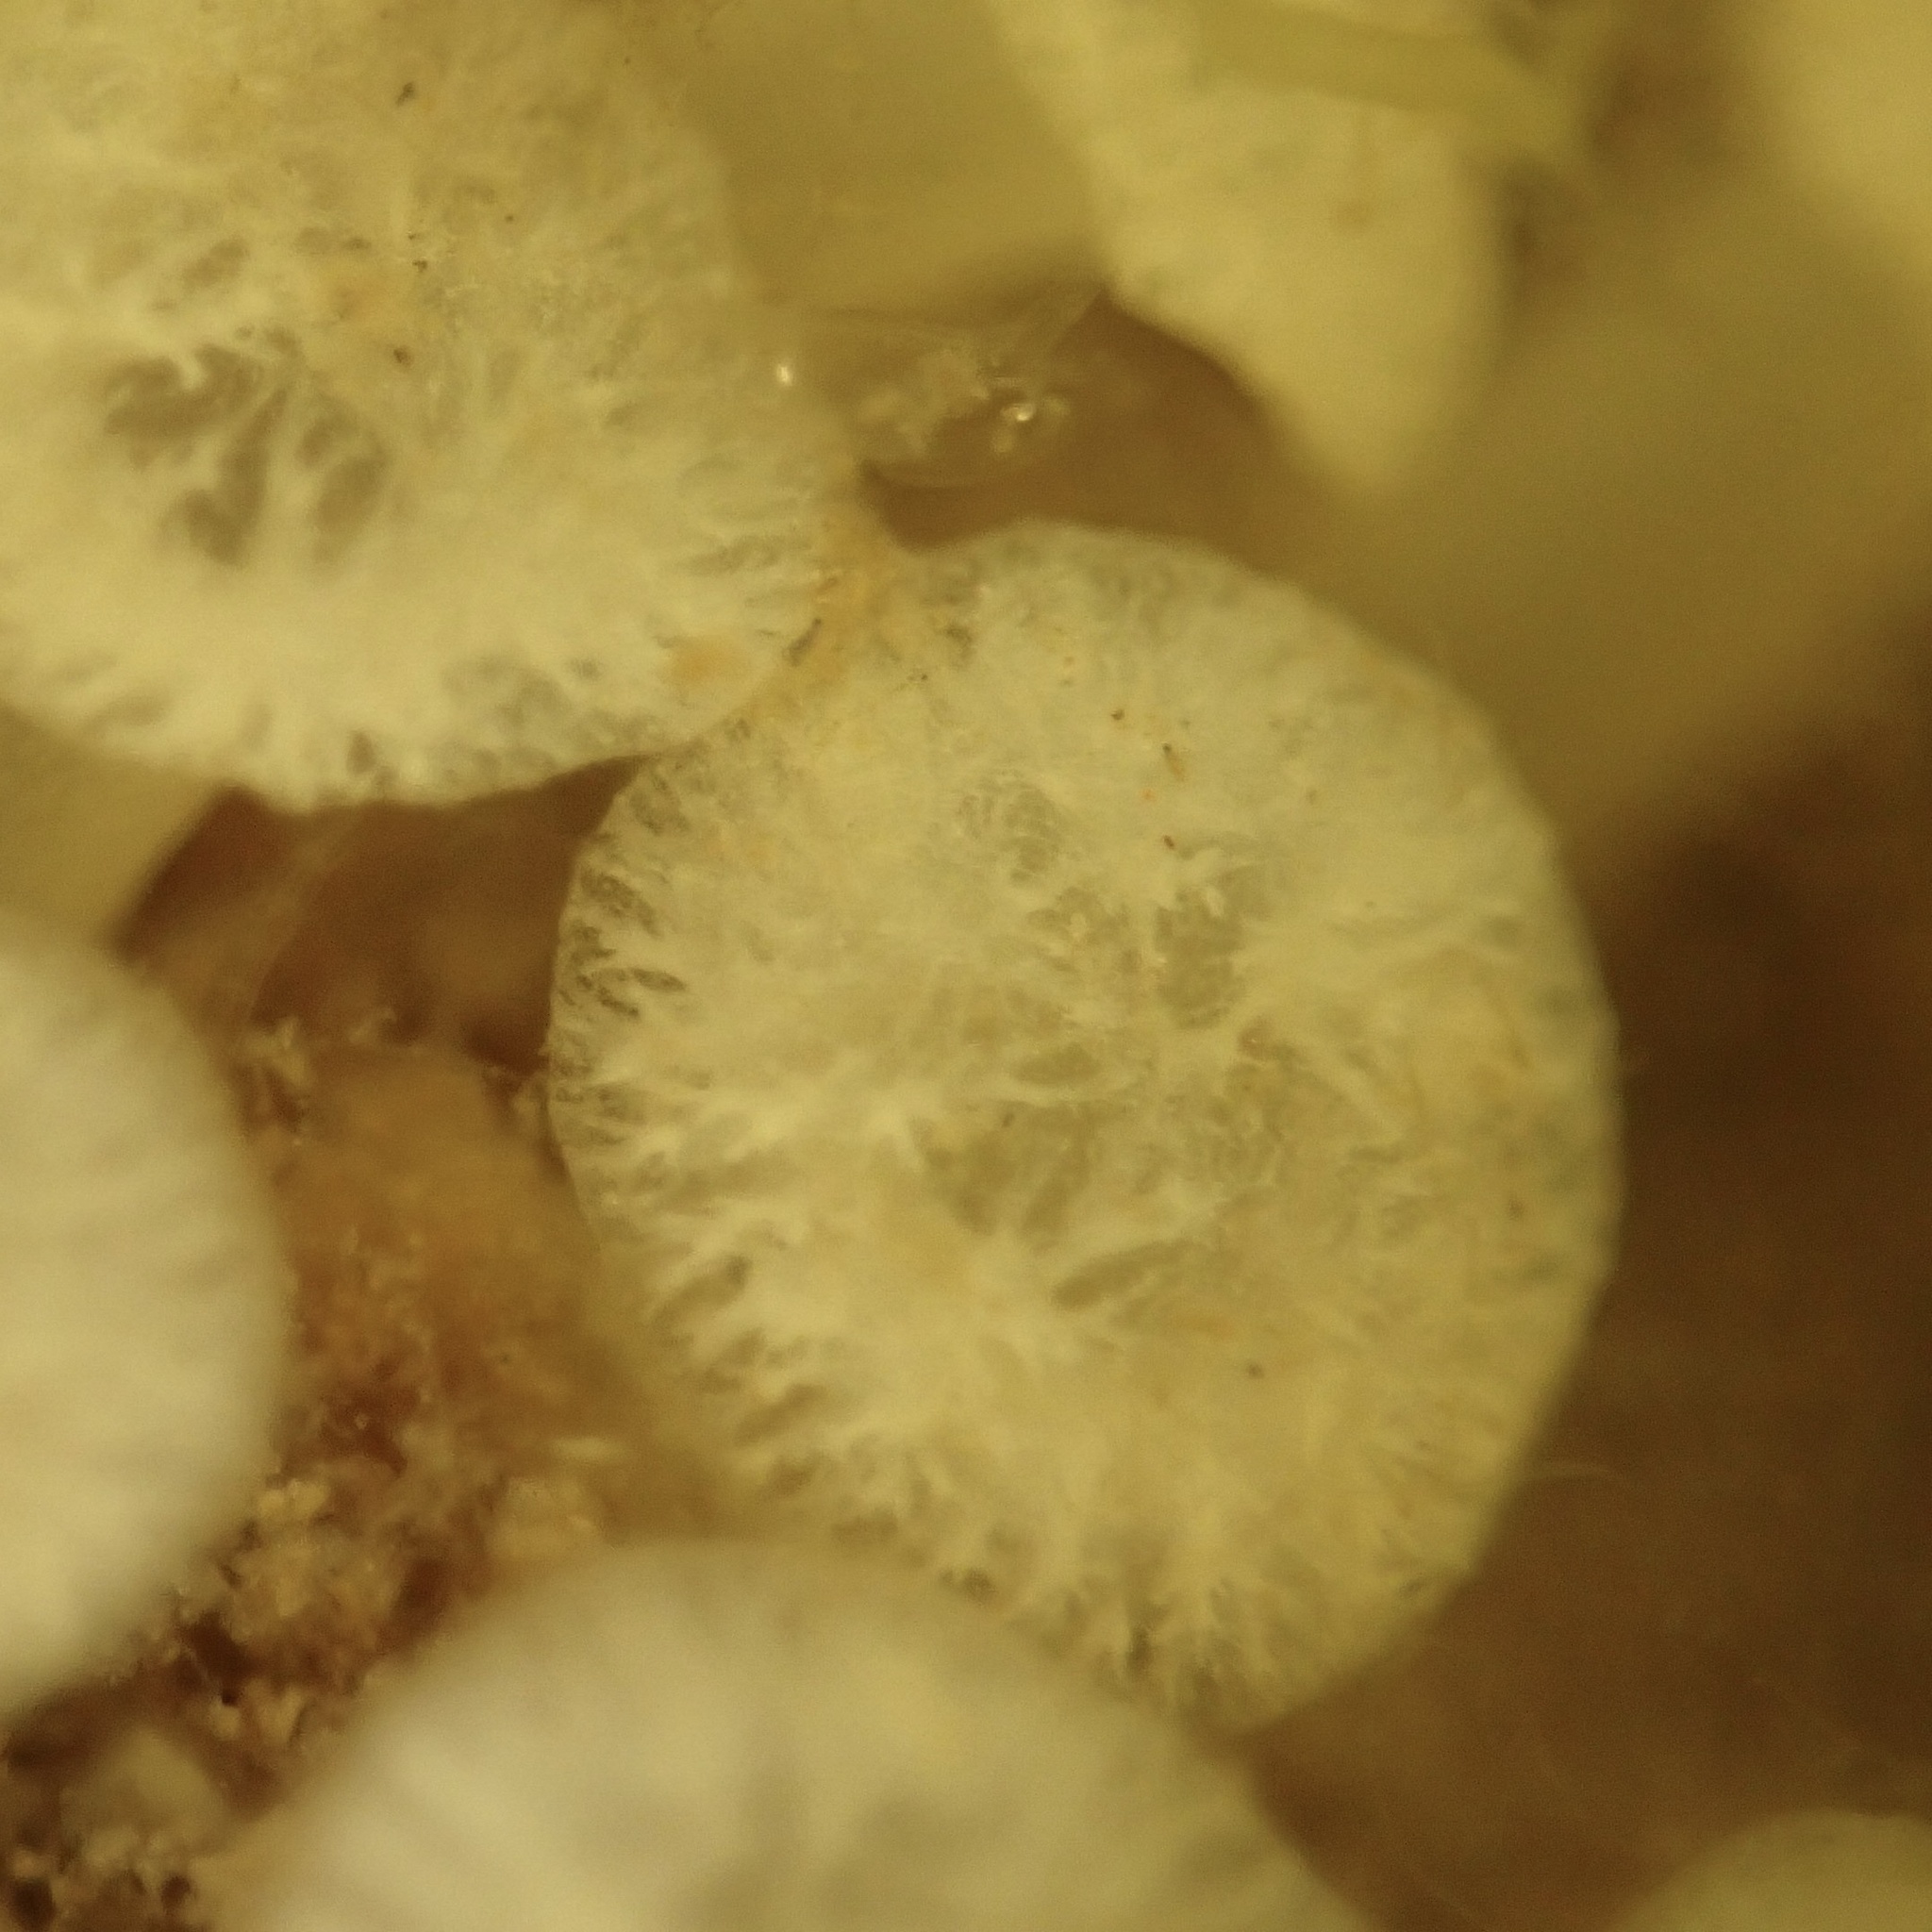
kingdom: Animalia
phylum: Porifera
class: Demospongiae
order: Clionaida
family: Clionaidae
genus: Cliona
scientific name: Cliona celata
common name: Boring sponge
